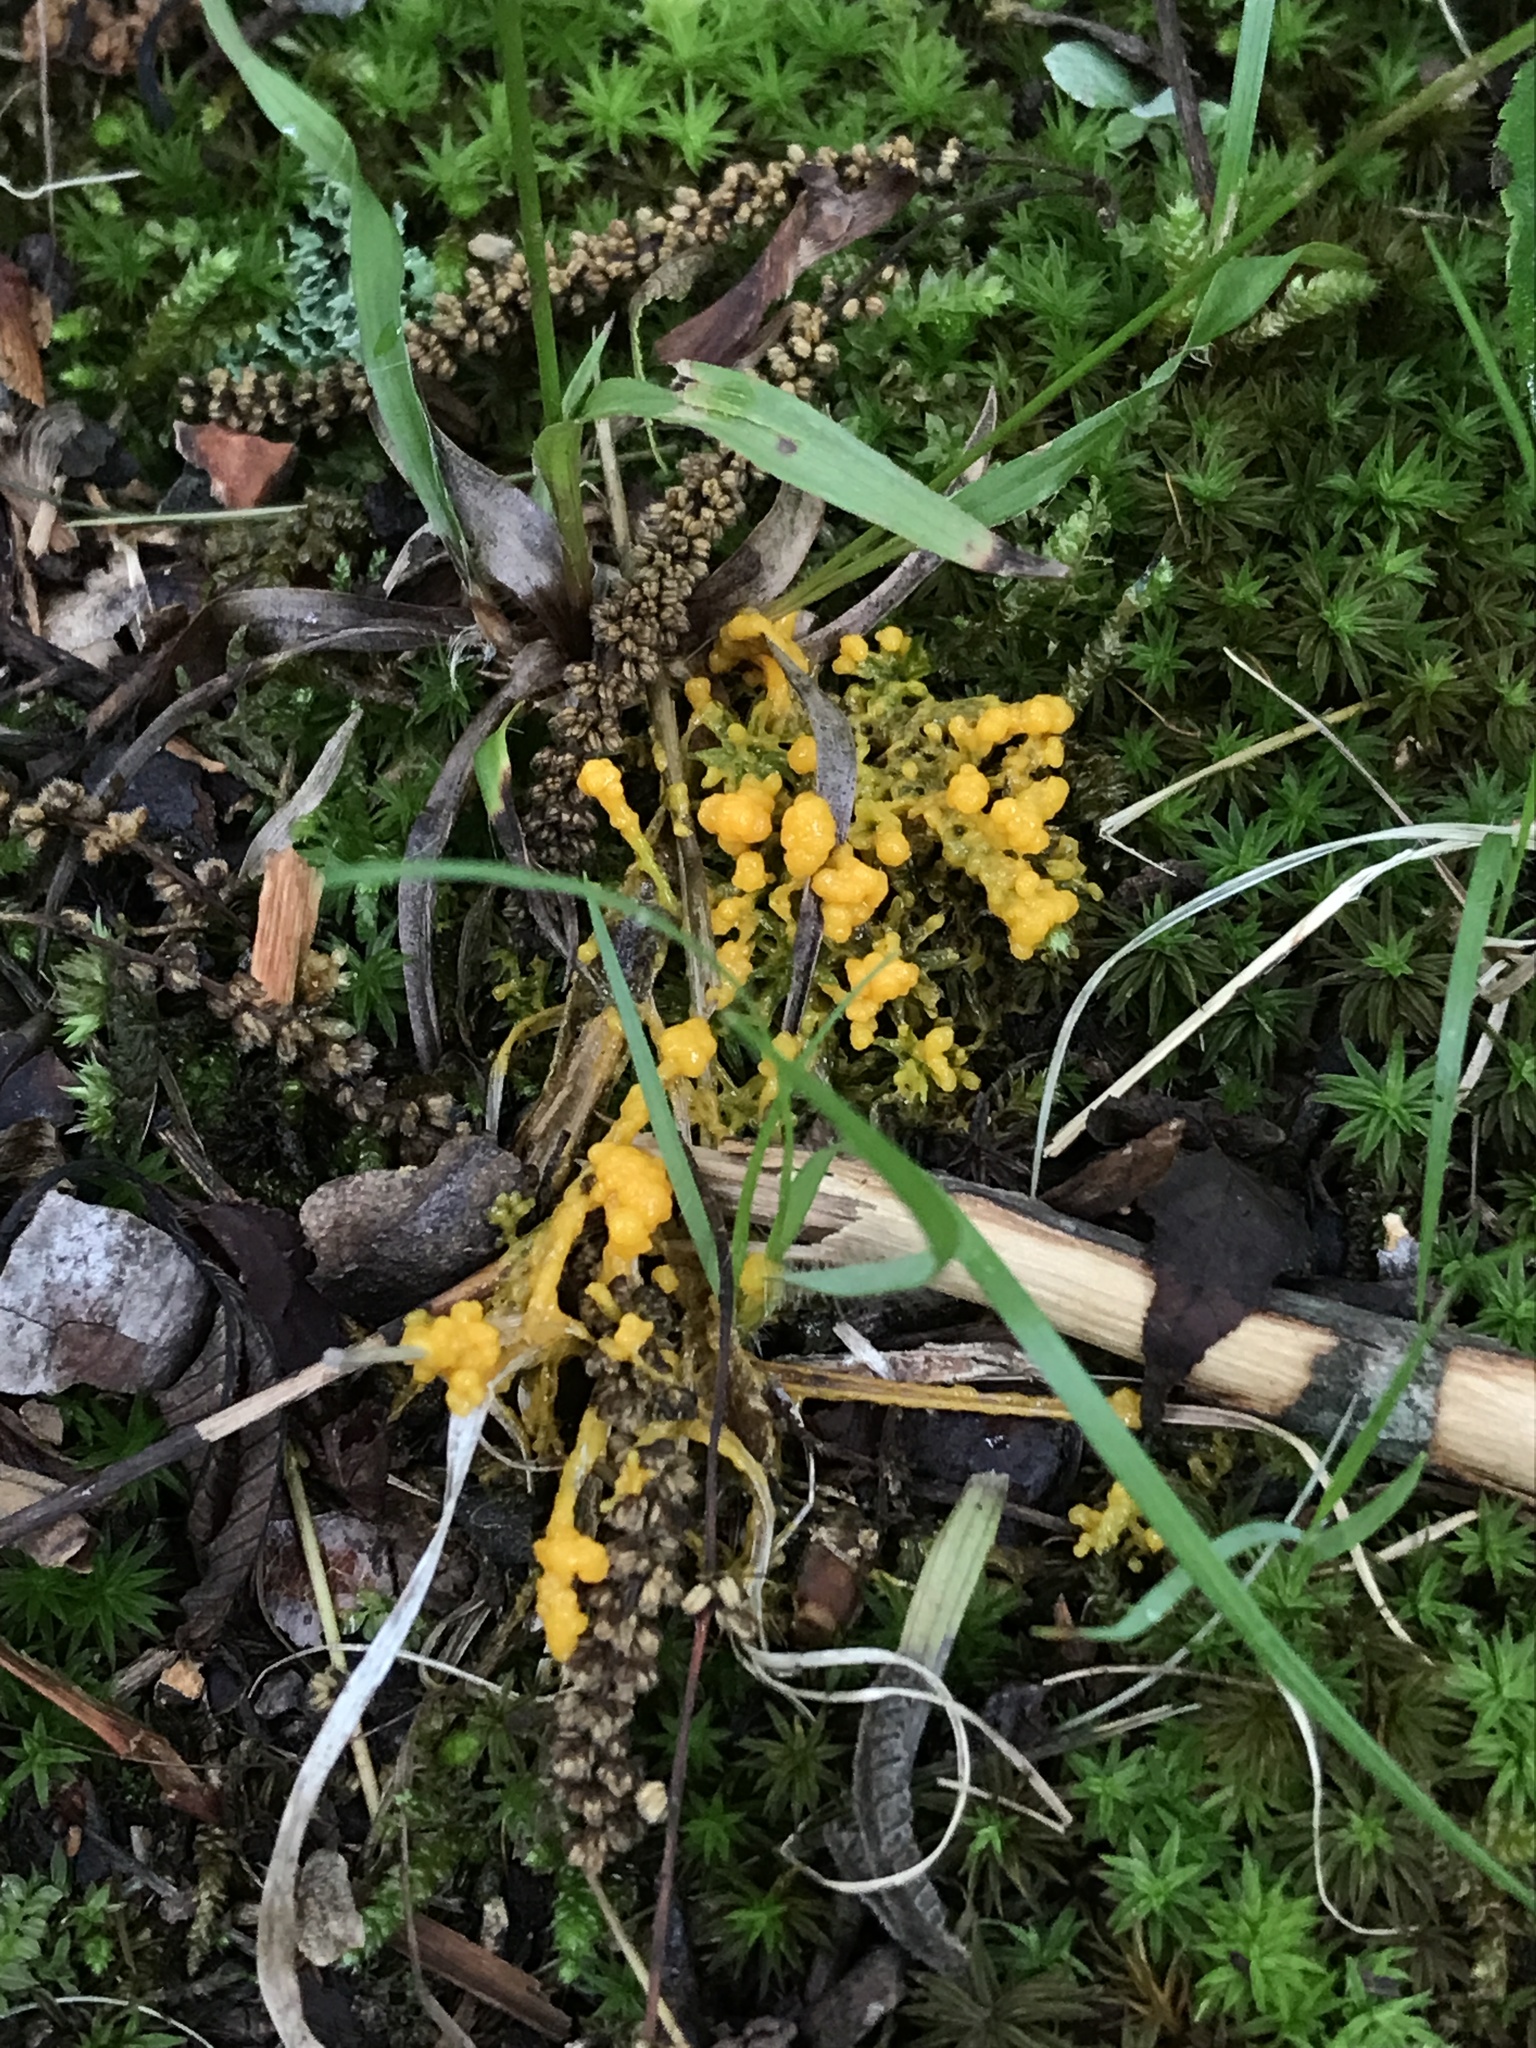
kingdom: Protozoa
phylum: Mycetozoa
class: Myxomycetes
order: Physarales
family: Physaraceae
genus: Fuligo
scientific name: Fuligo septica
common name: Dog vomit slime mold
